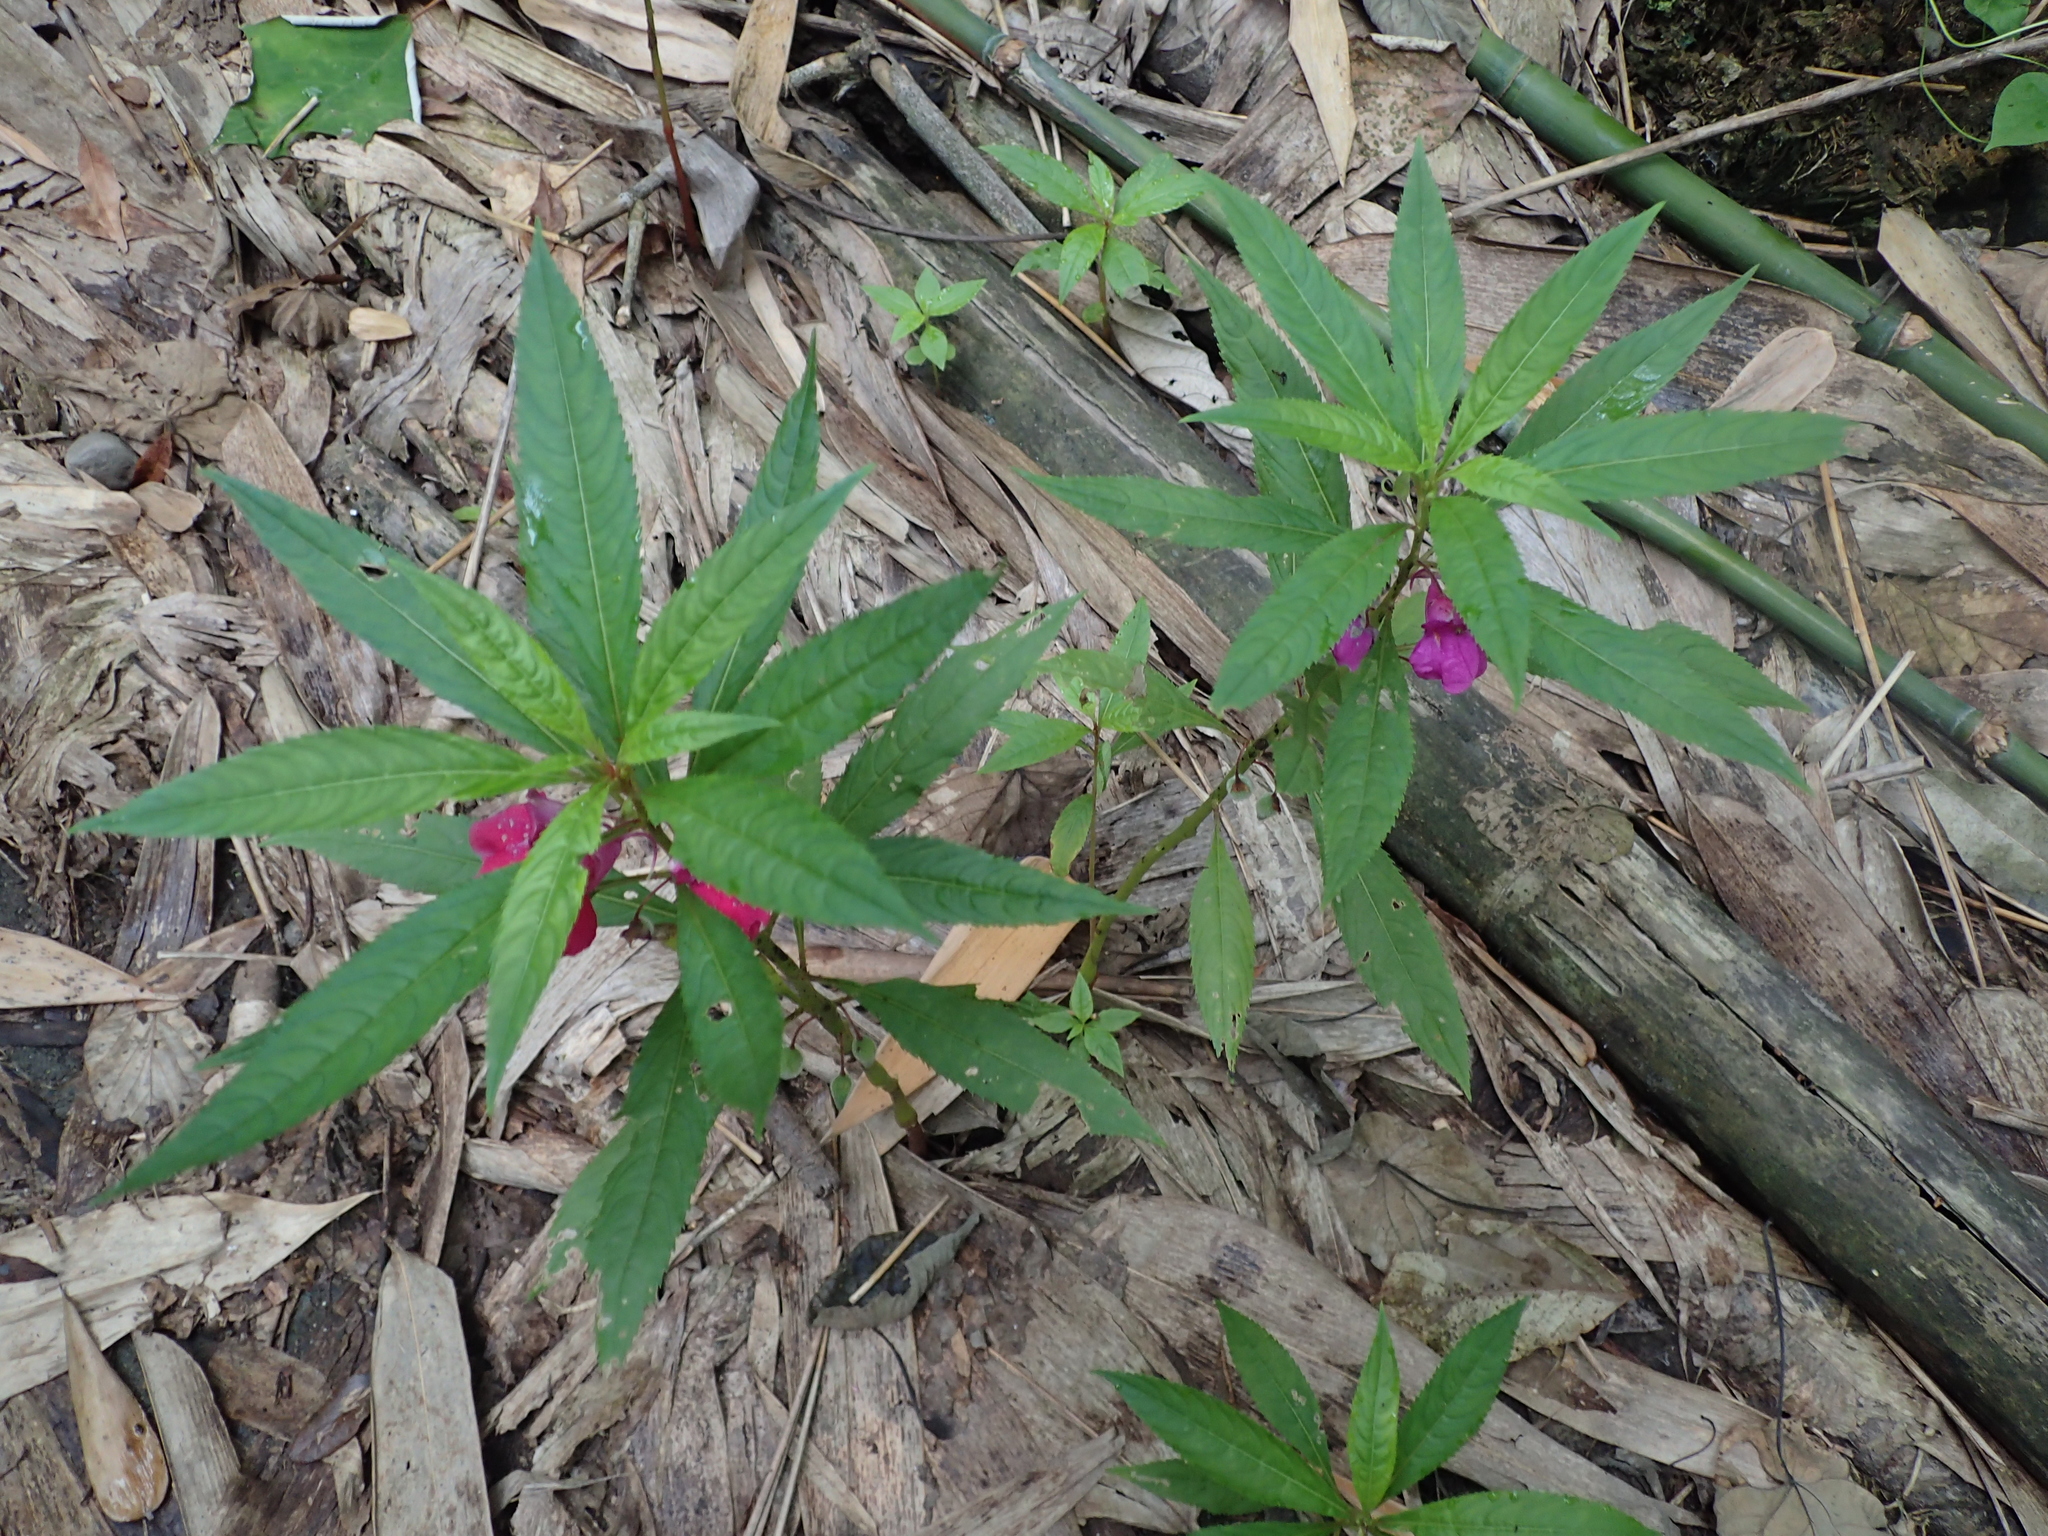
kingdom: Plantae
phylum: Tracheophyta
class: Magnoliopsida
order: Ericales
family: Balsaminaceae
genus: Impatiens
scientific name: Impatiens balsamina
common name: Balsam
